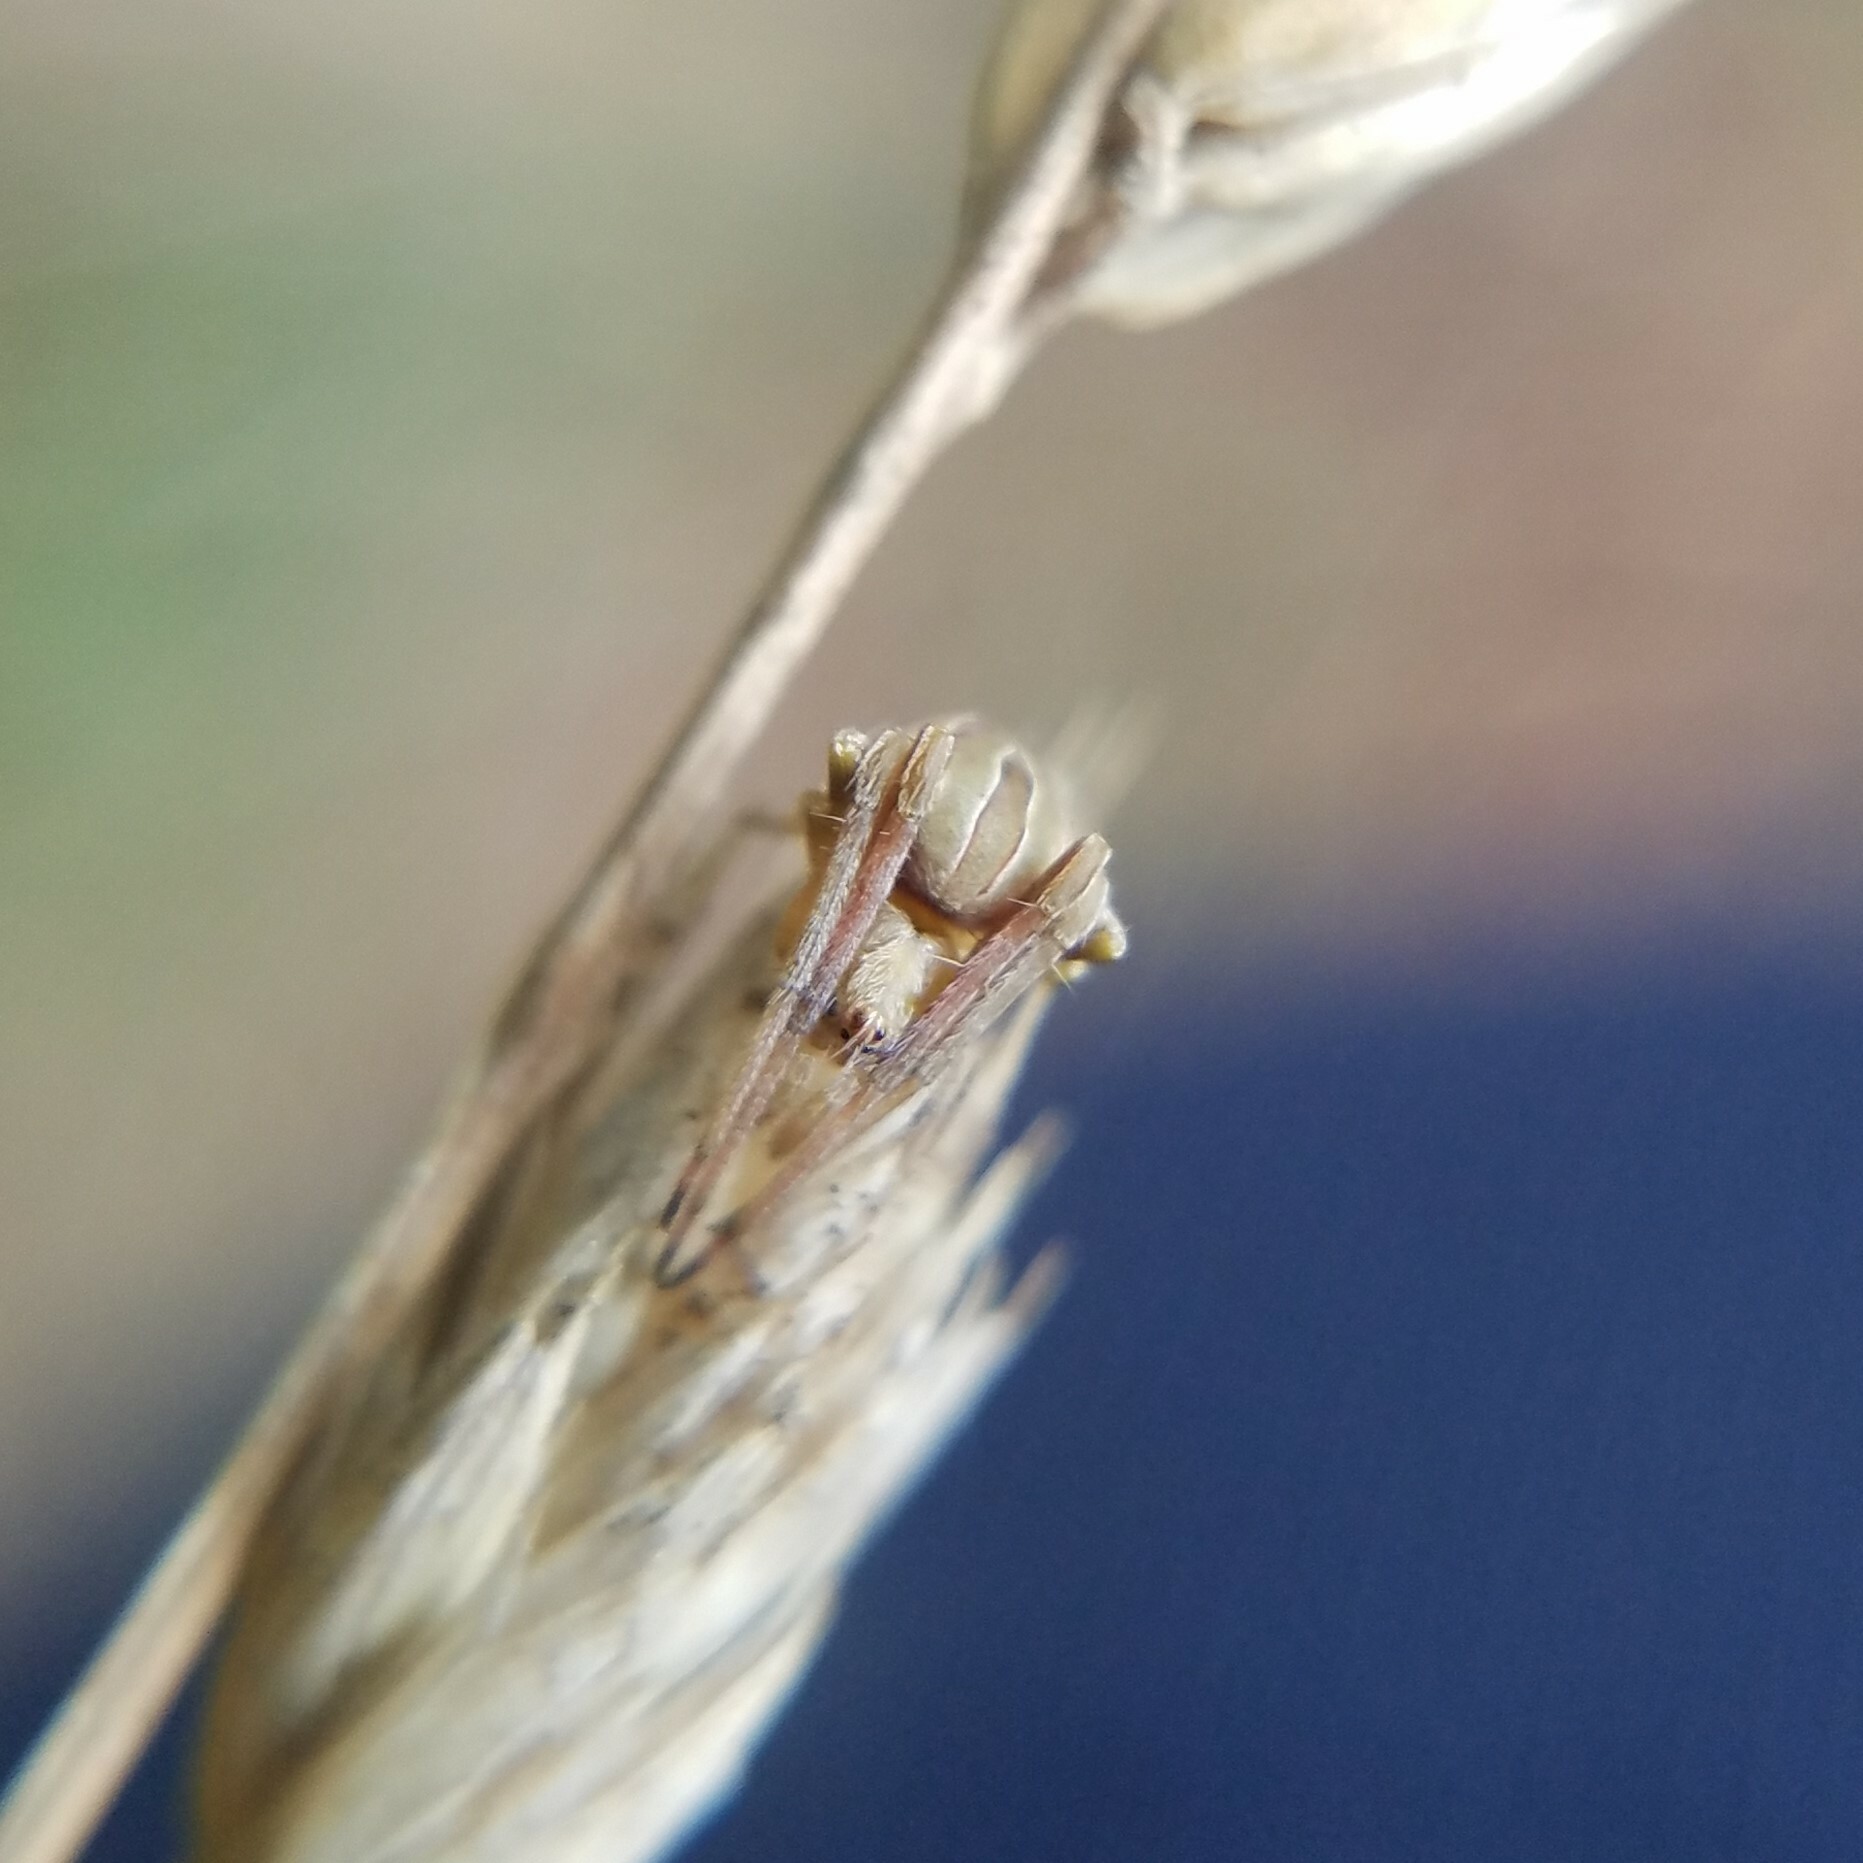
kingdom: Animalia
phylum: Arthropoda
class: Arachnida
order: Araneae
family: Araneidae
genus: Acacesia
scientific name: Acacesia hamata
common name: Orb weavers
